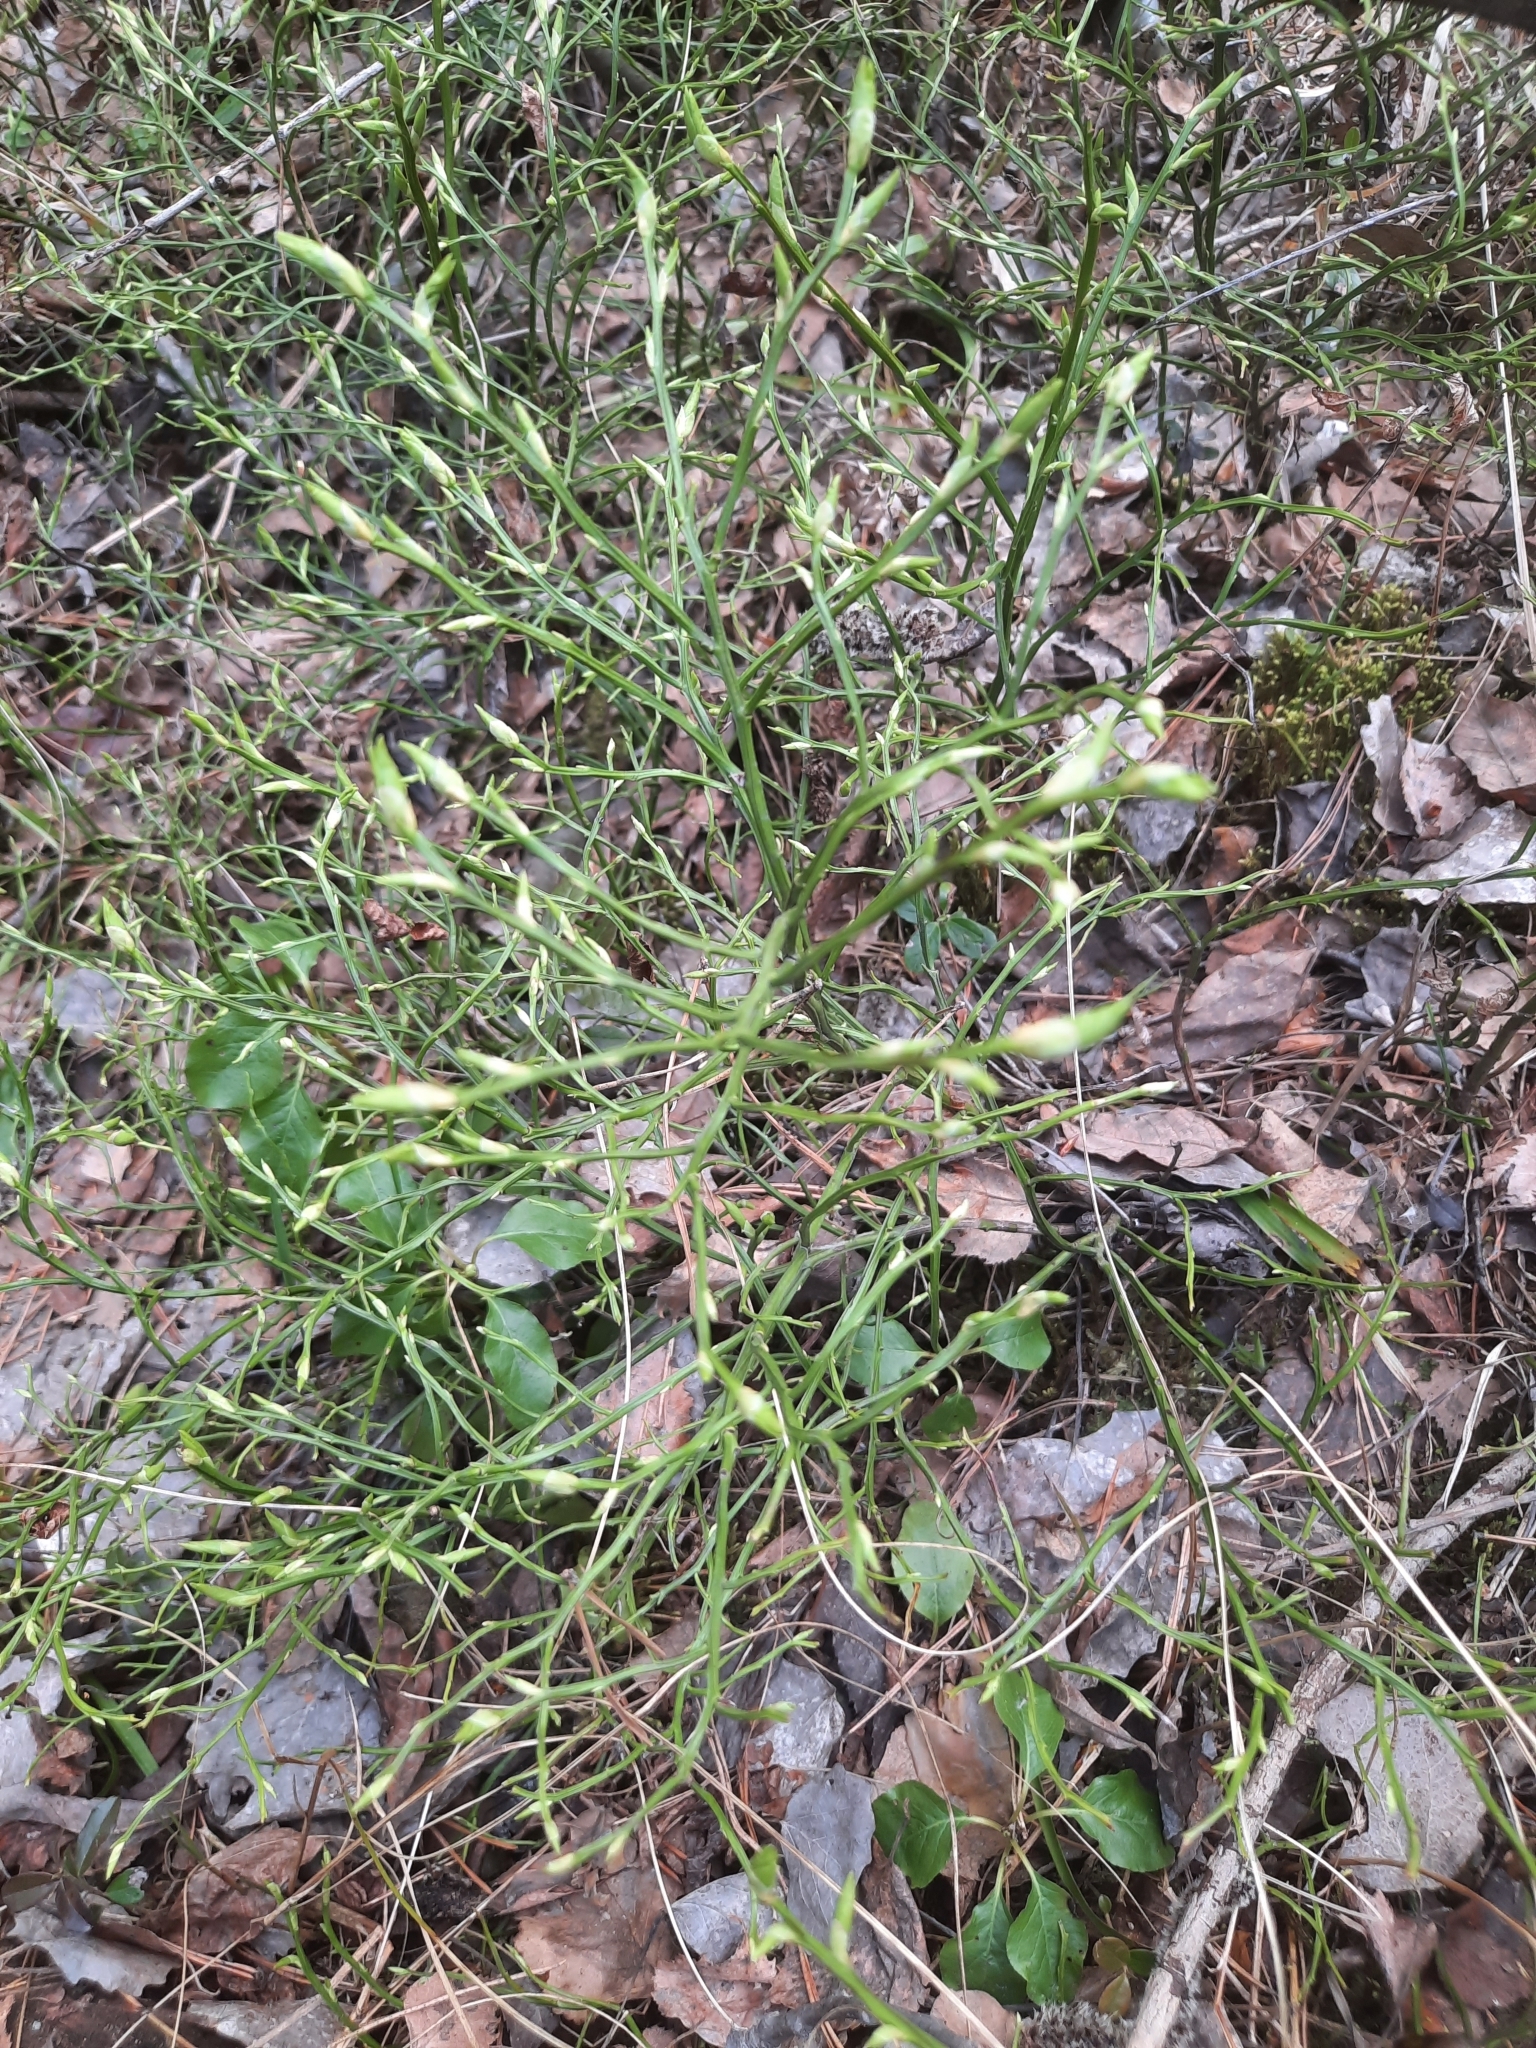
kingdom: Plantae
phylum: Tracheophyta
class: Magnoliopsida
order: Ericales
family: Ericaceae
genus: Vaccinium
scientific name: Vaccinium myrtillus
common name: Bilberry
